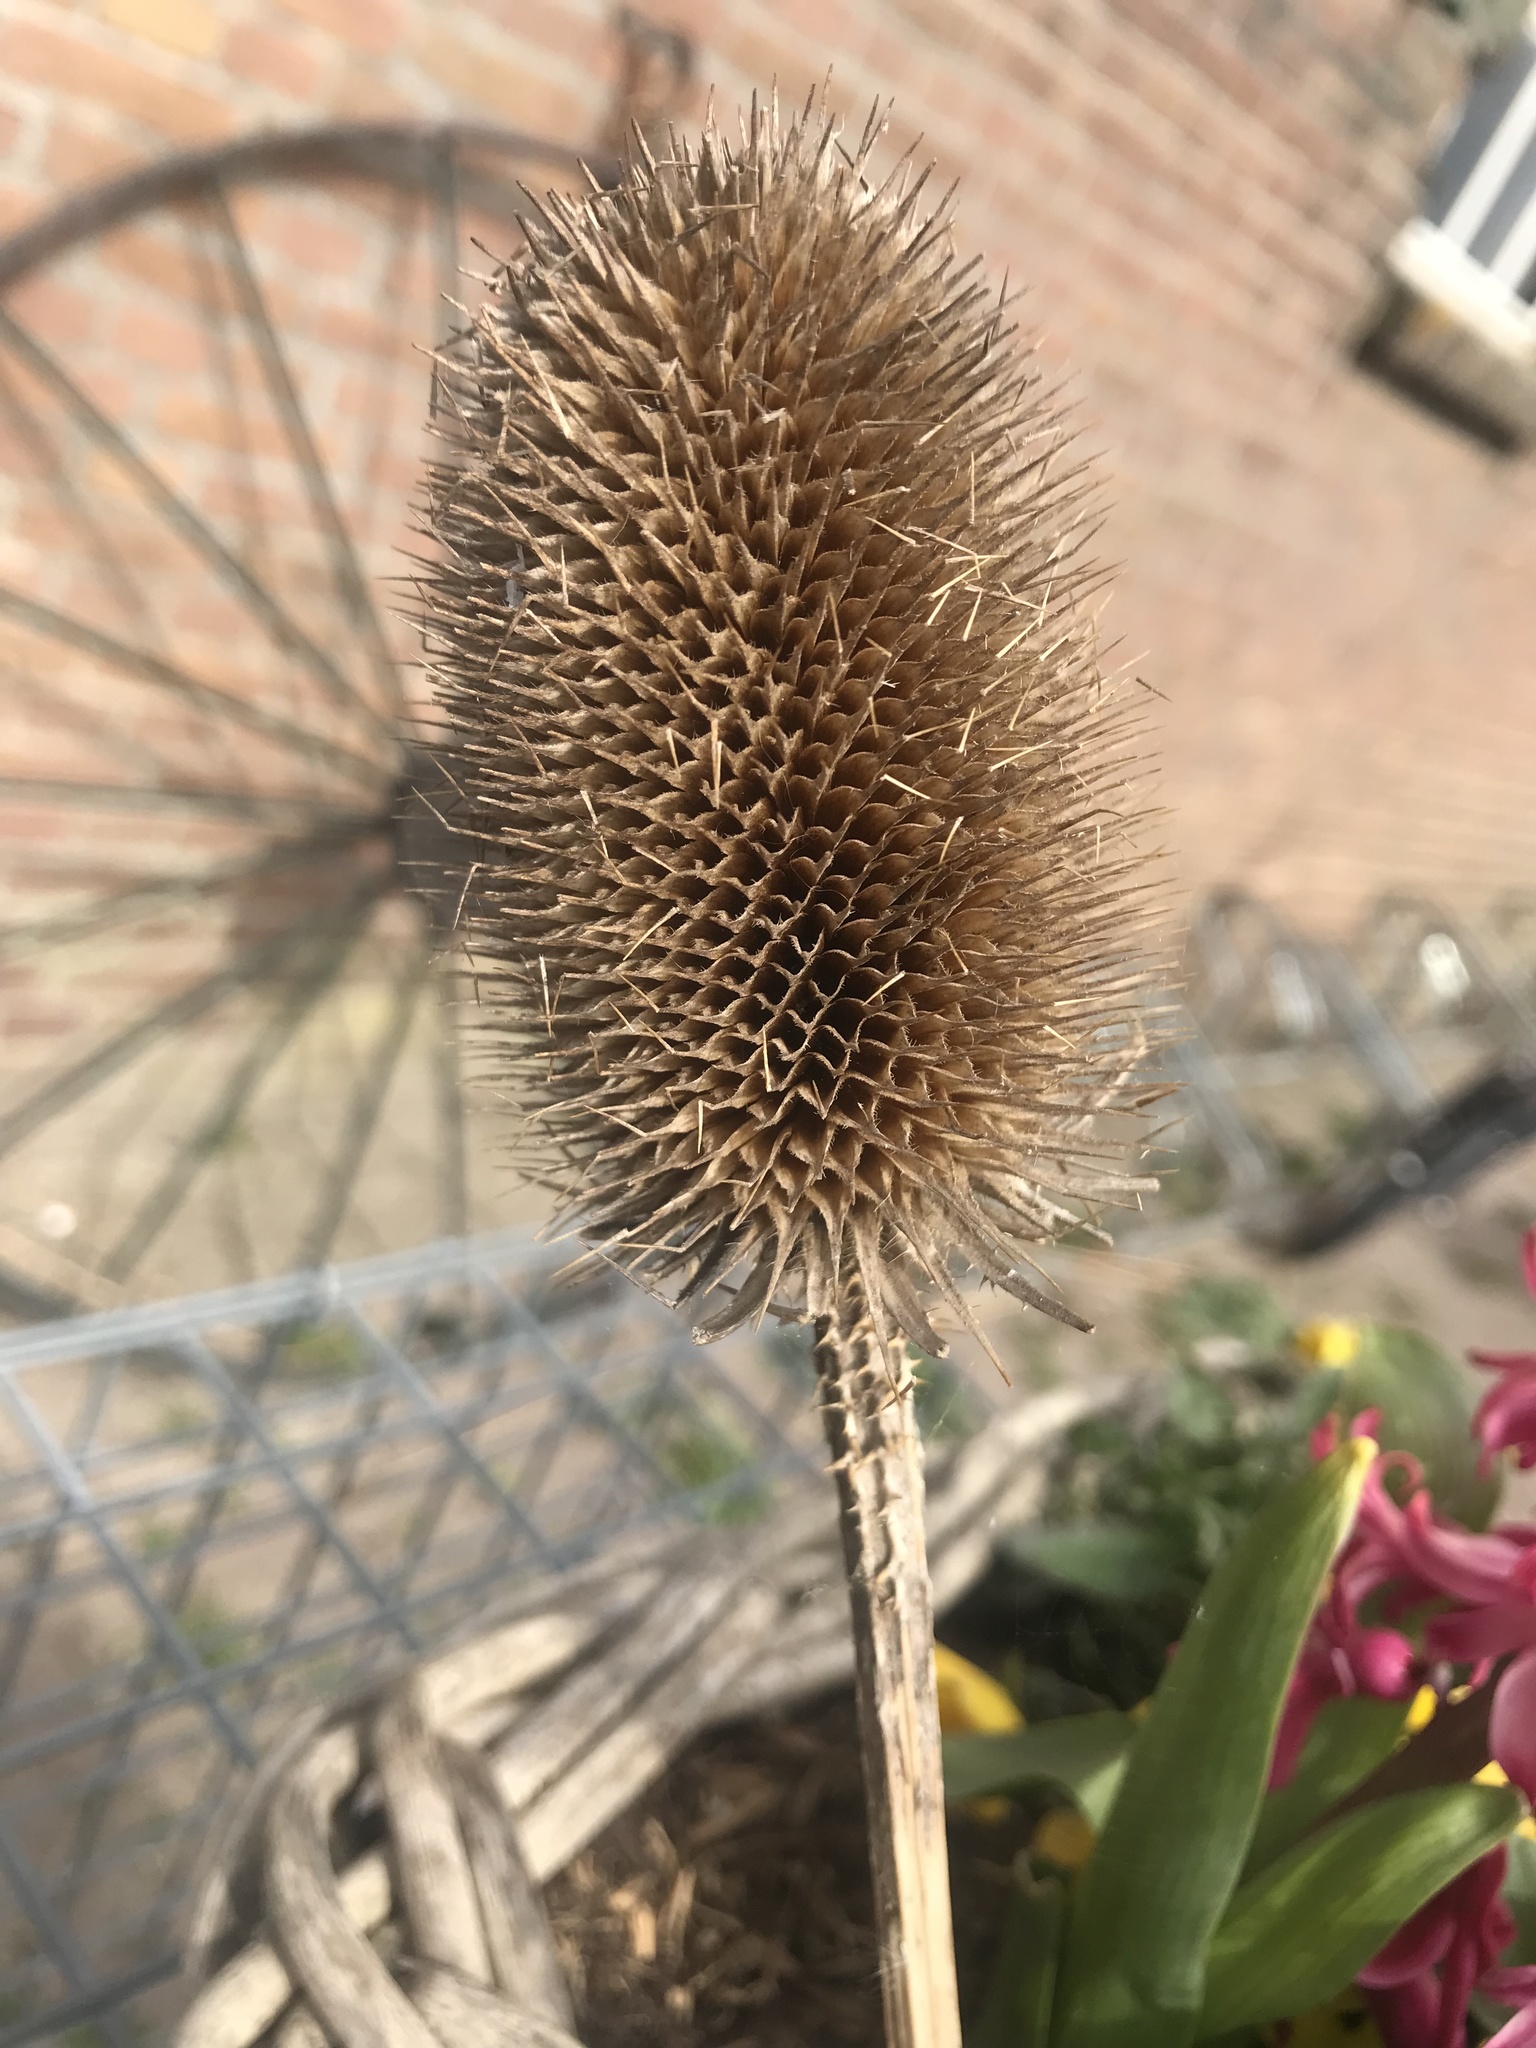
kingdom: Plantae
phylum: Tracheophyta
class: Magnoliopsida
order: Dipsacales
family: Caprifoliaceae
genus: Dipsacus
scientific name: Dipsacus fullonum
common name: Teasel
